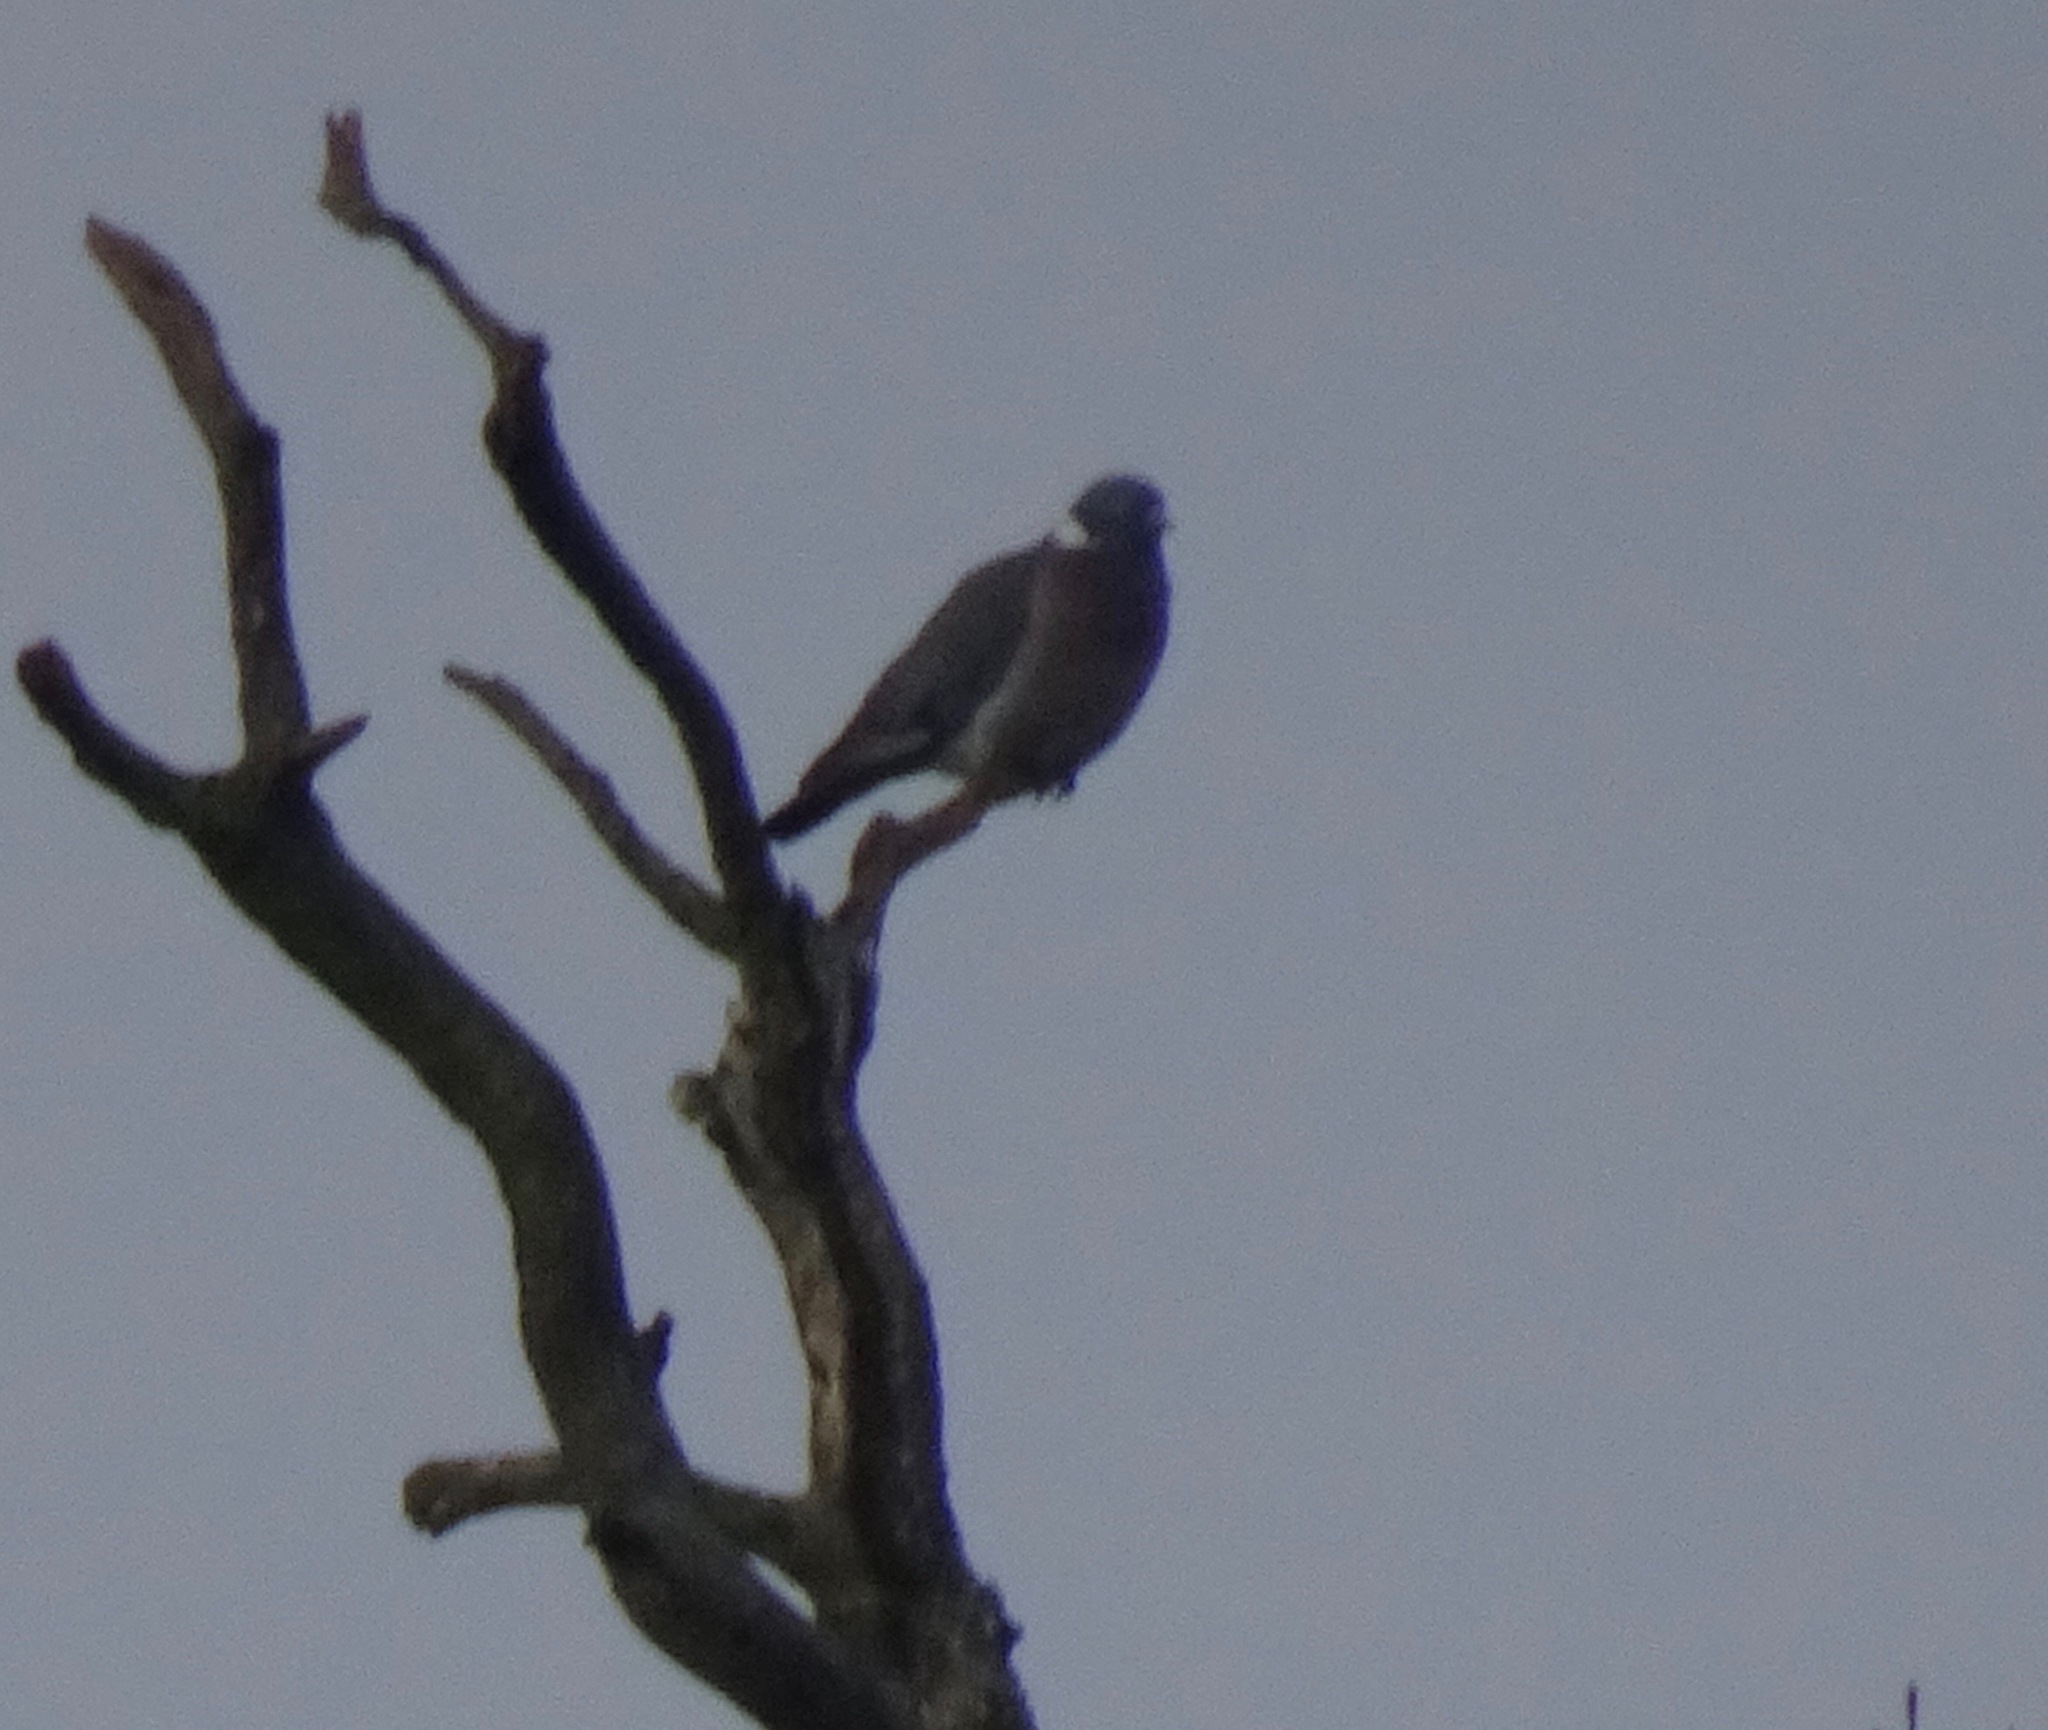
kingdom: Animalia
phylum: Chordata
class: Aves
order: Columbiformes
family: Columbidae
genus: Columba
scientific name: Columba palumbus
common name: Common wood pigeon
